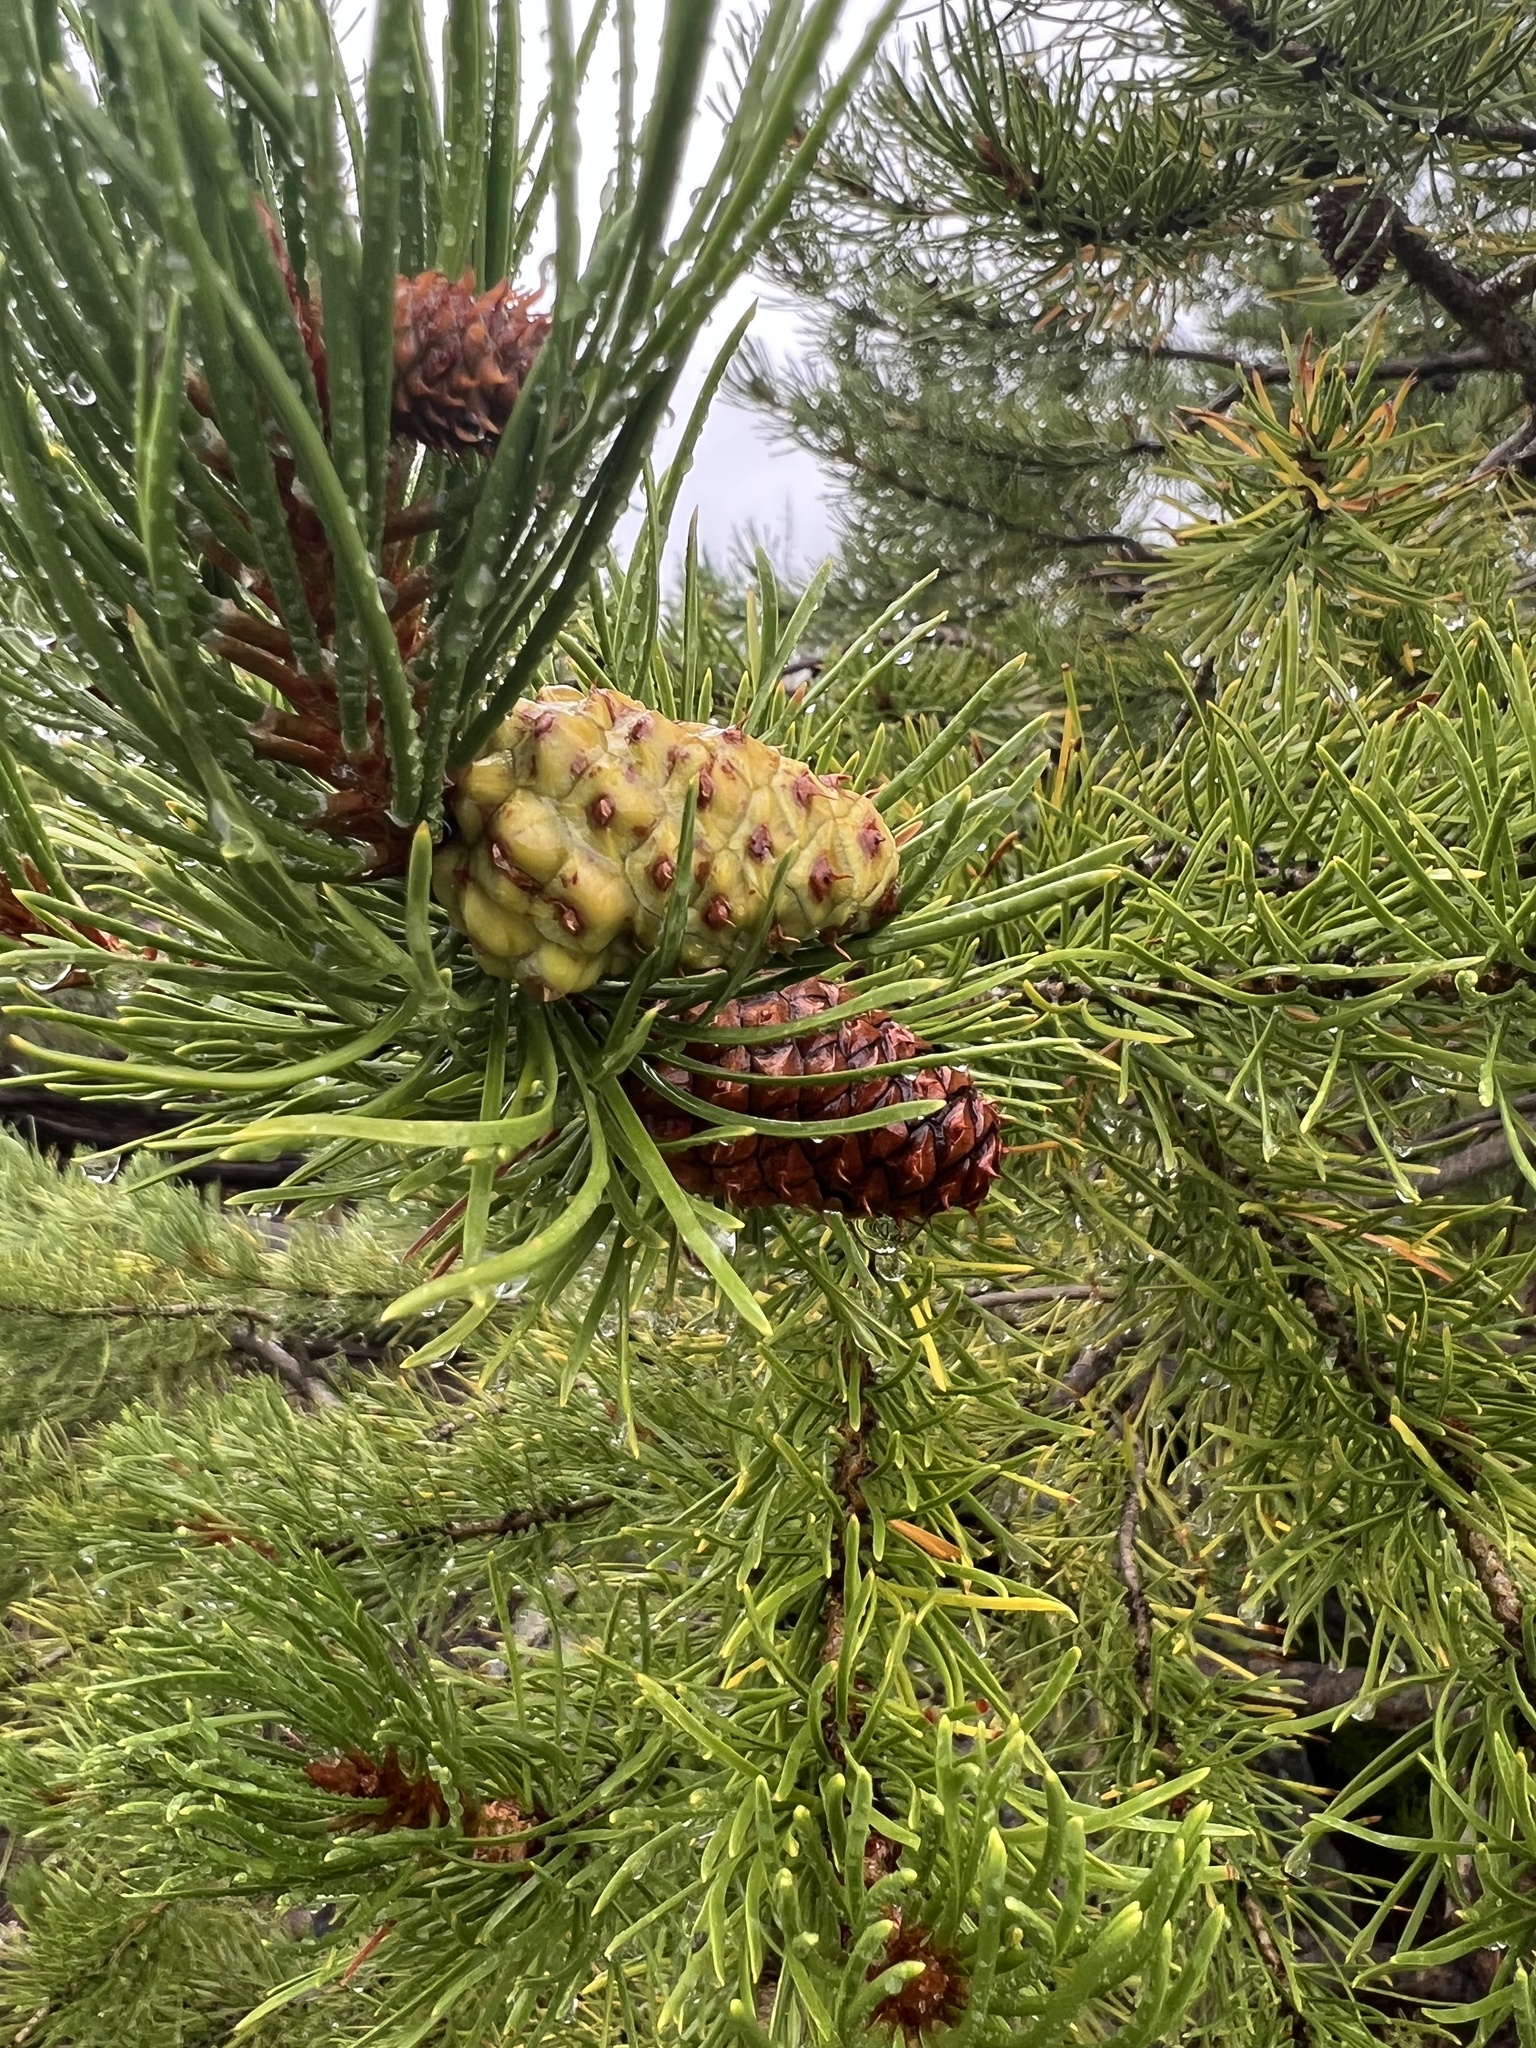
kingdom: Plantae
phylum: Tracheophyta
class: Pinopsida
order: Pinales
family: Pinaceae
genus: Pinus
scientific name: Pinus contorta
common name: Lodgepole pine
